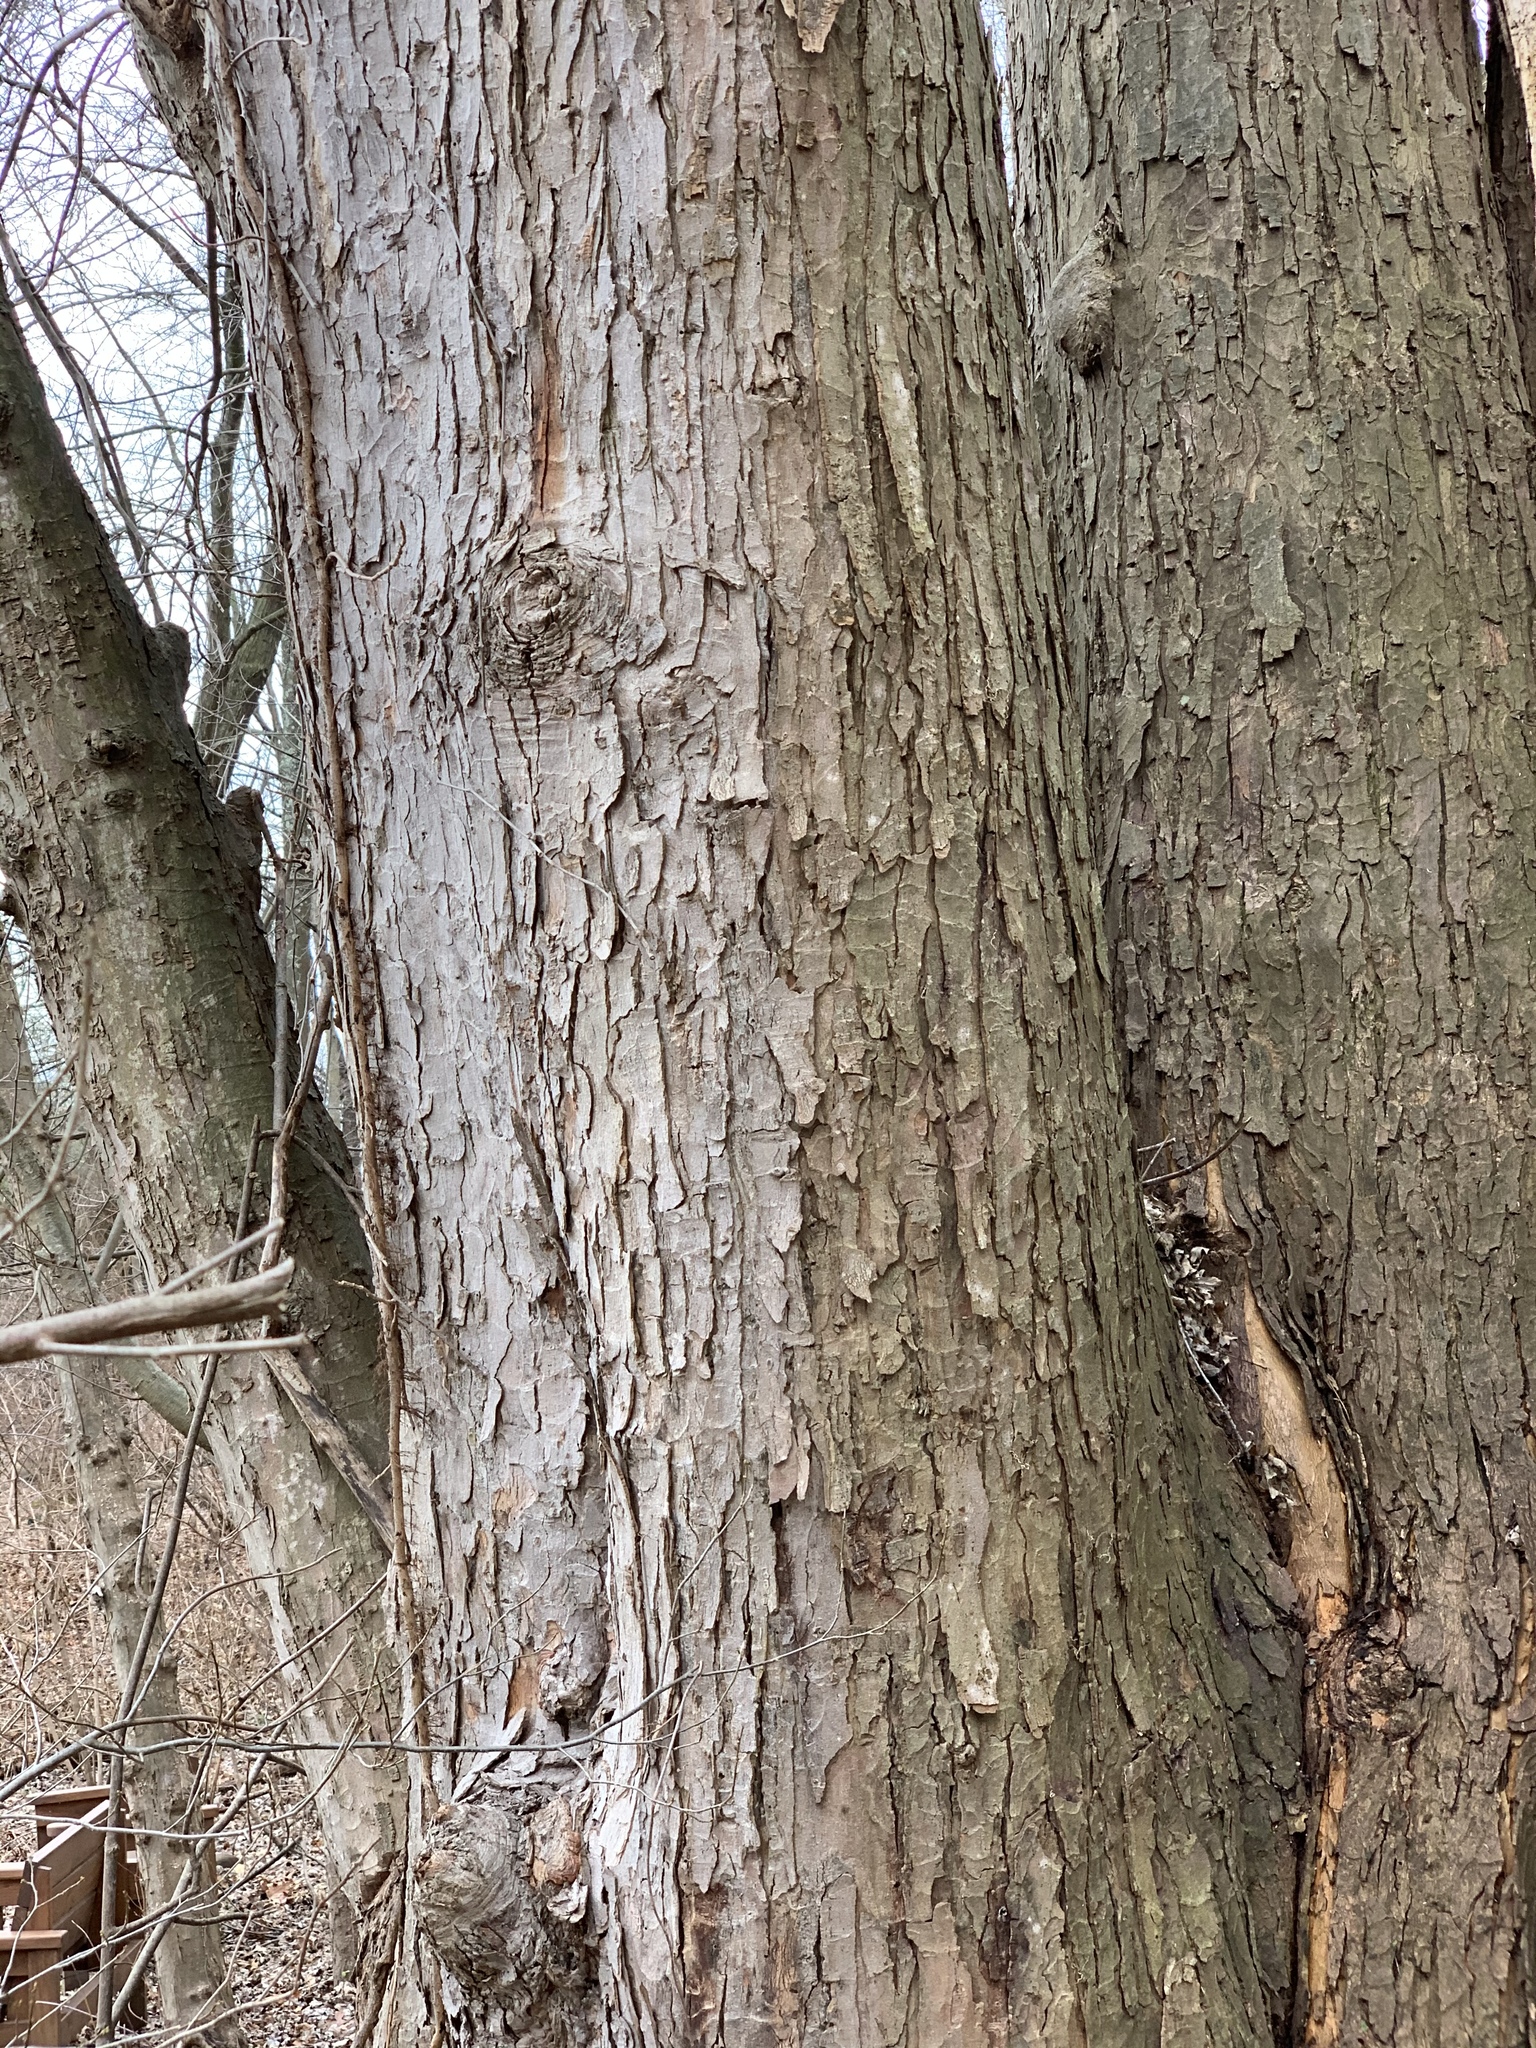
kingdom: Plantae
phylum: Tracheophyta
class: Magnoliopsida
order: Sapindales
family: Sapindaceae
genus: Acer
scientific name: Acer saccharinum
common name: Silver maple
